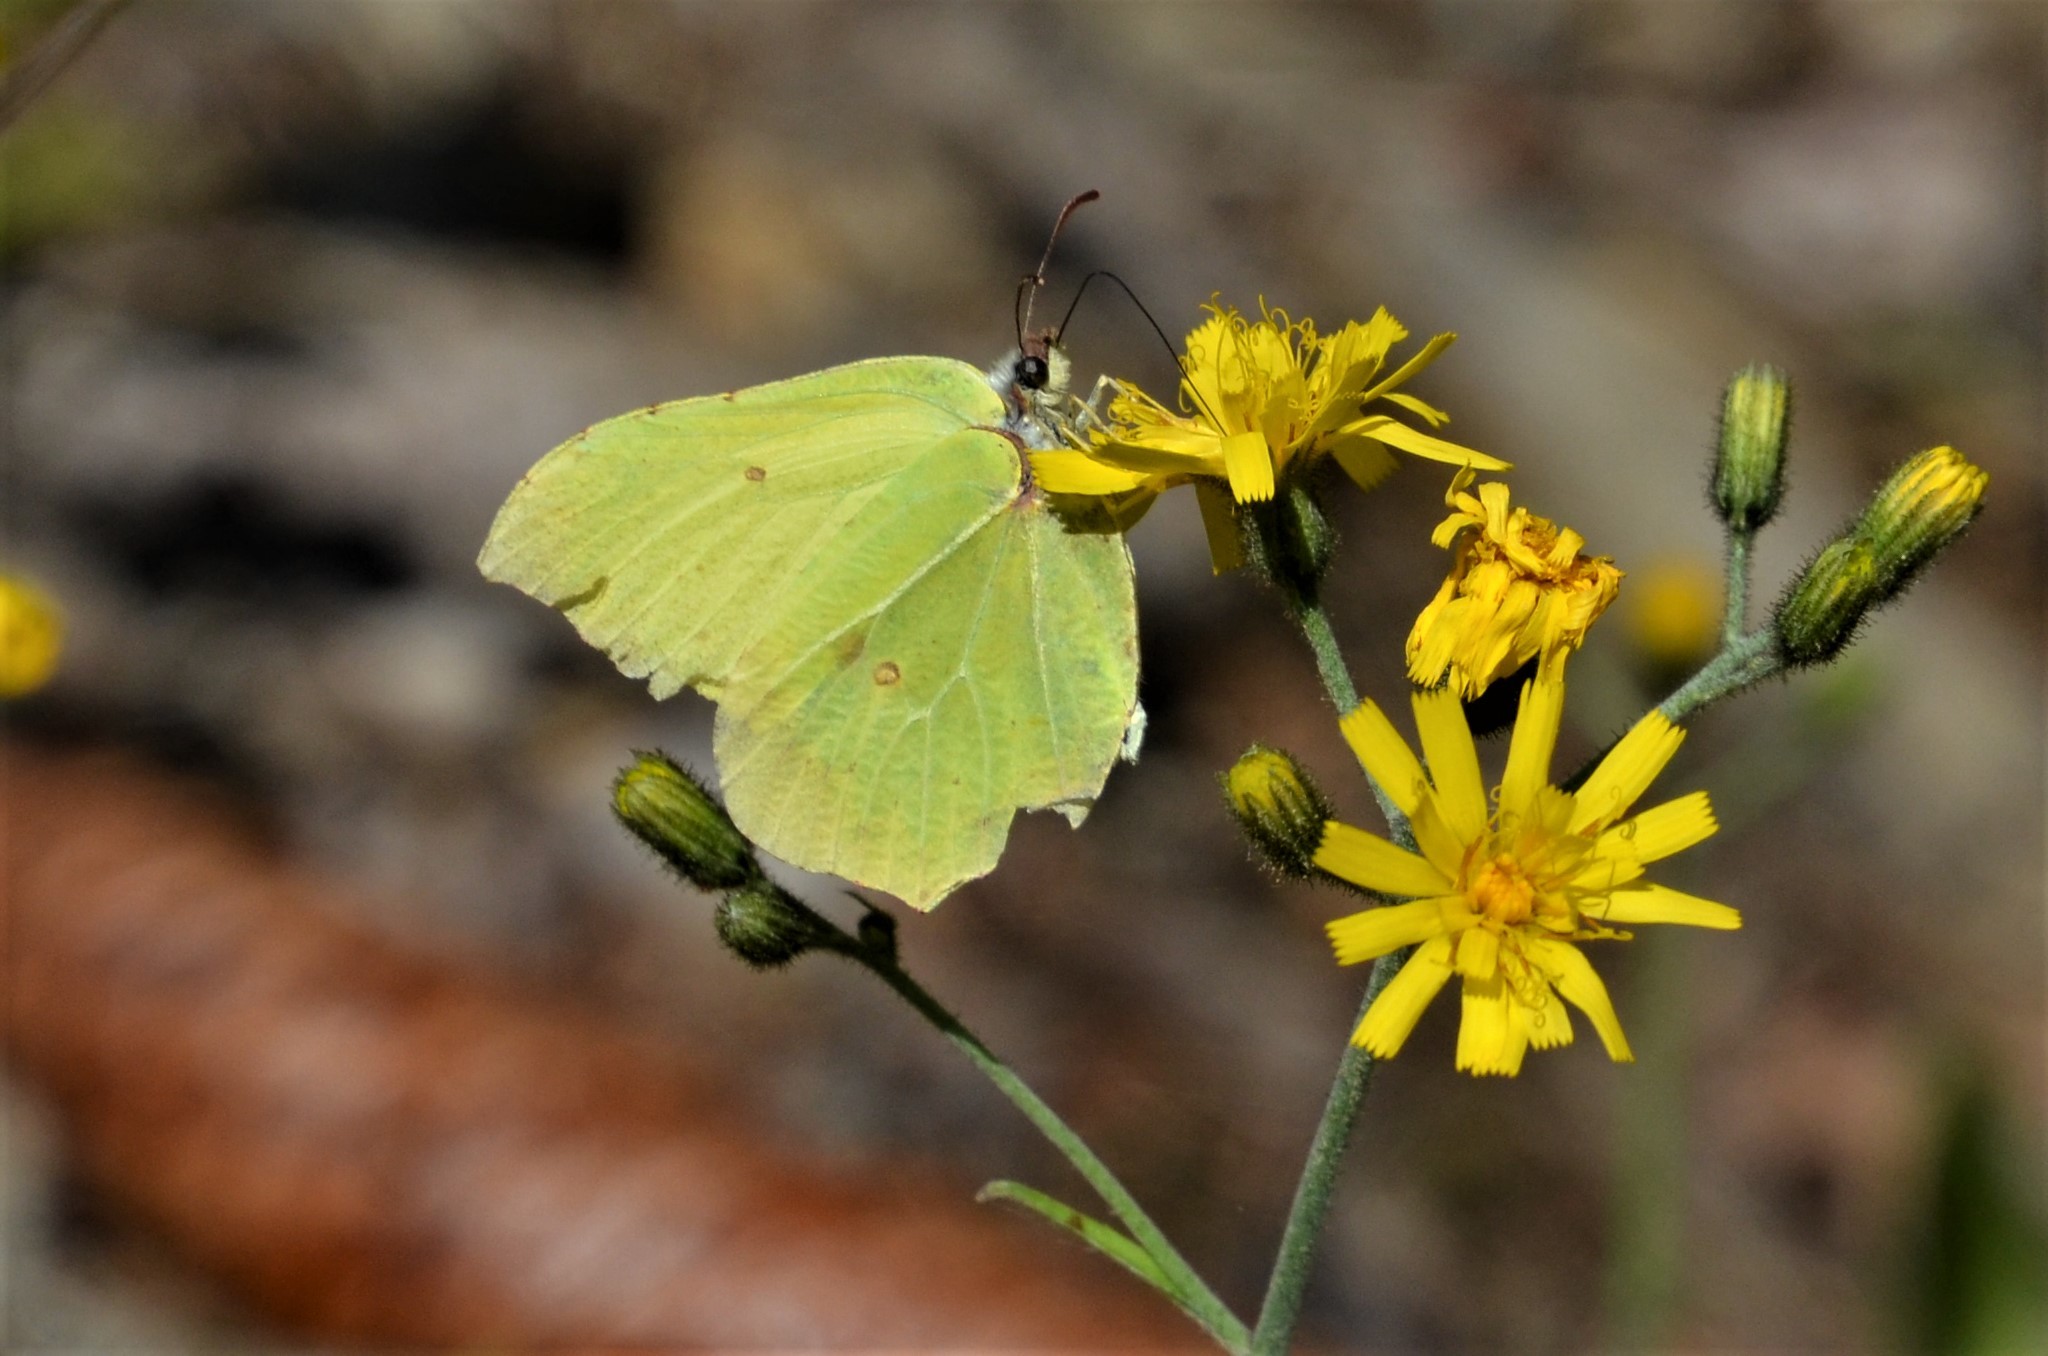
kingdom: Animalia
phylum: Arthropoda
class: Insecta
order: Lepidoptera
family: Pieridae
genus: Gonepteryx
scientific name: Gonepteryx rhamni
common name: Brimstone
